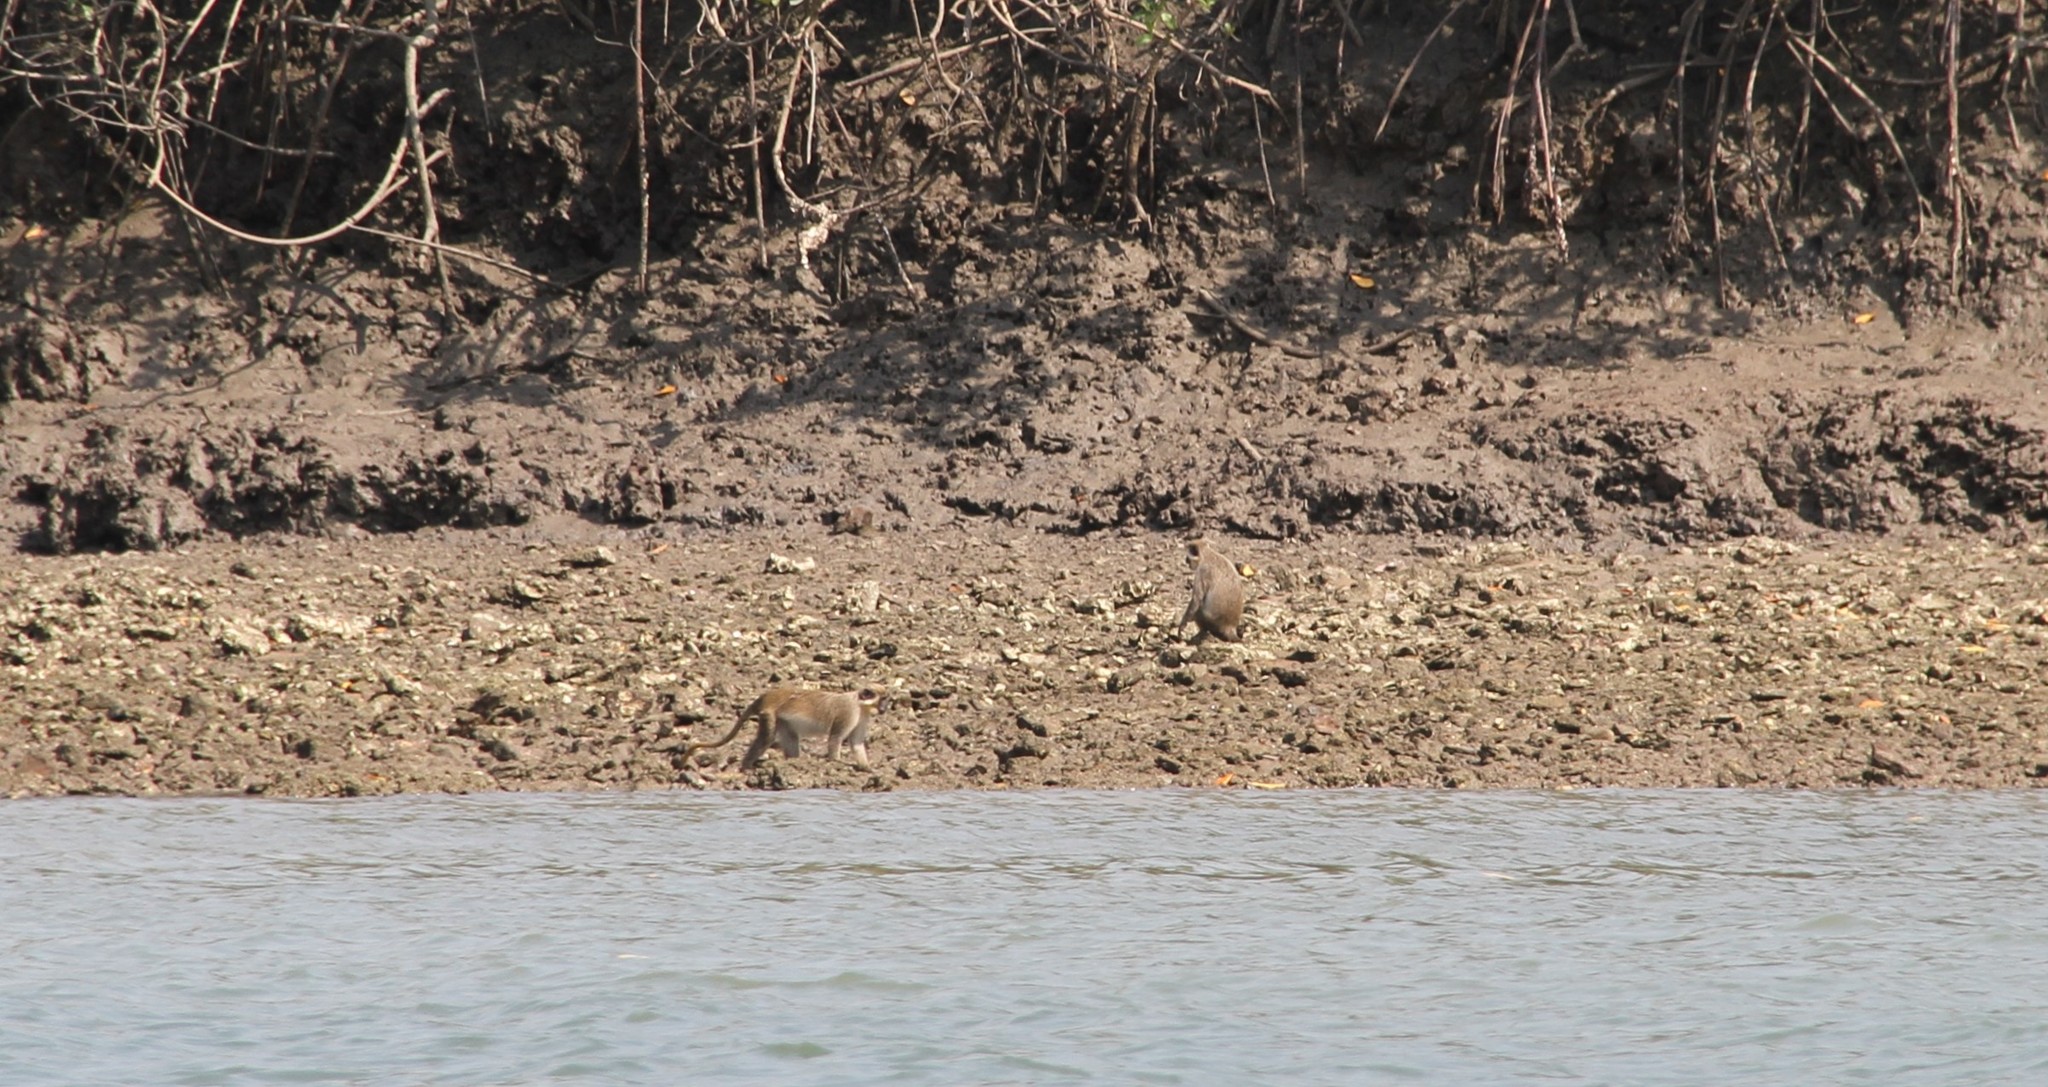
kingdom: Animalia
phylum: Chordata
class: Mammalia
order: Primates
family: Cercopithecidae
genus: Chlorocebus
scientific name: Chlorocebus sabaeus
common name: Green monkey
